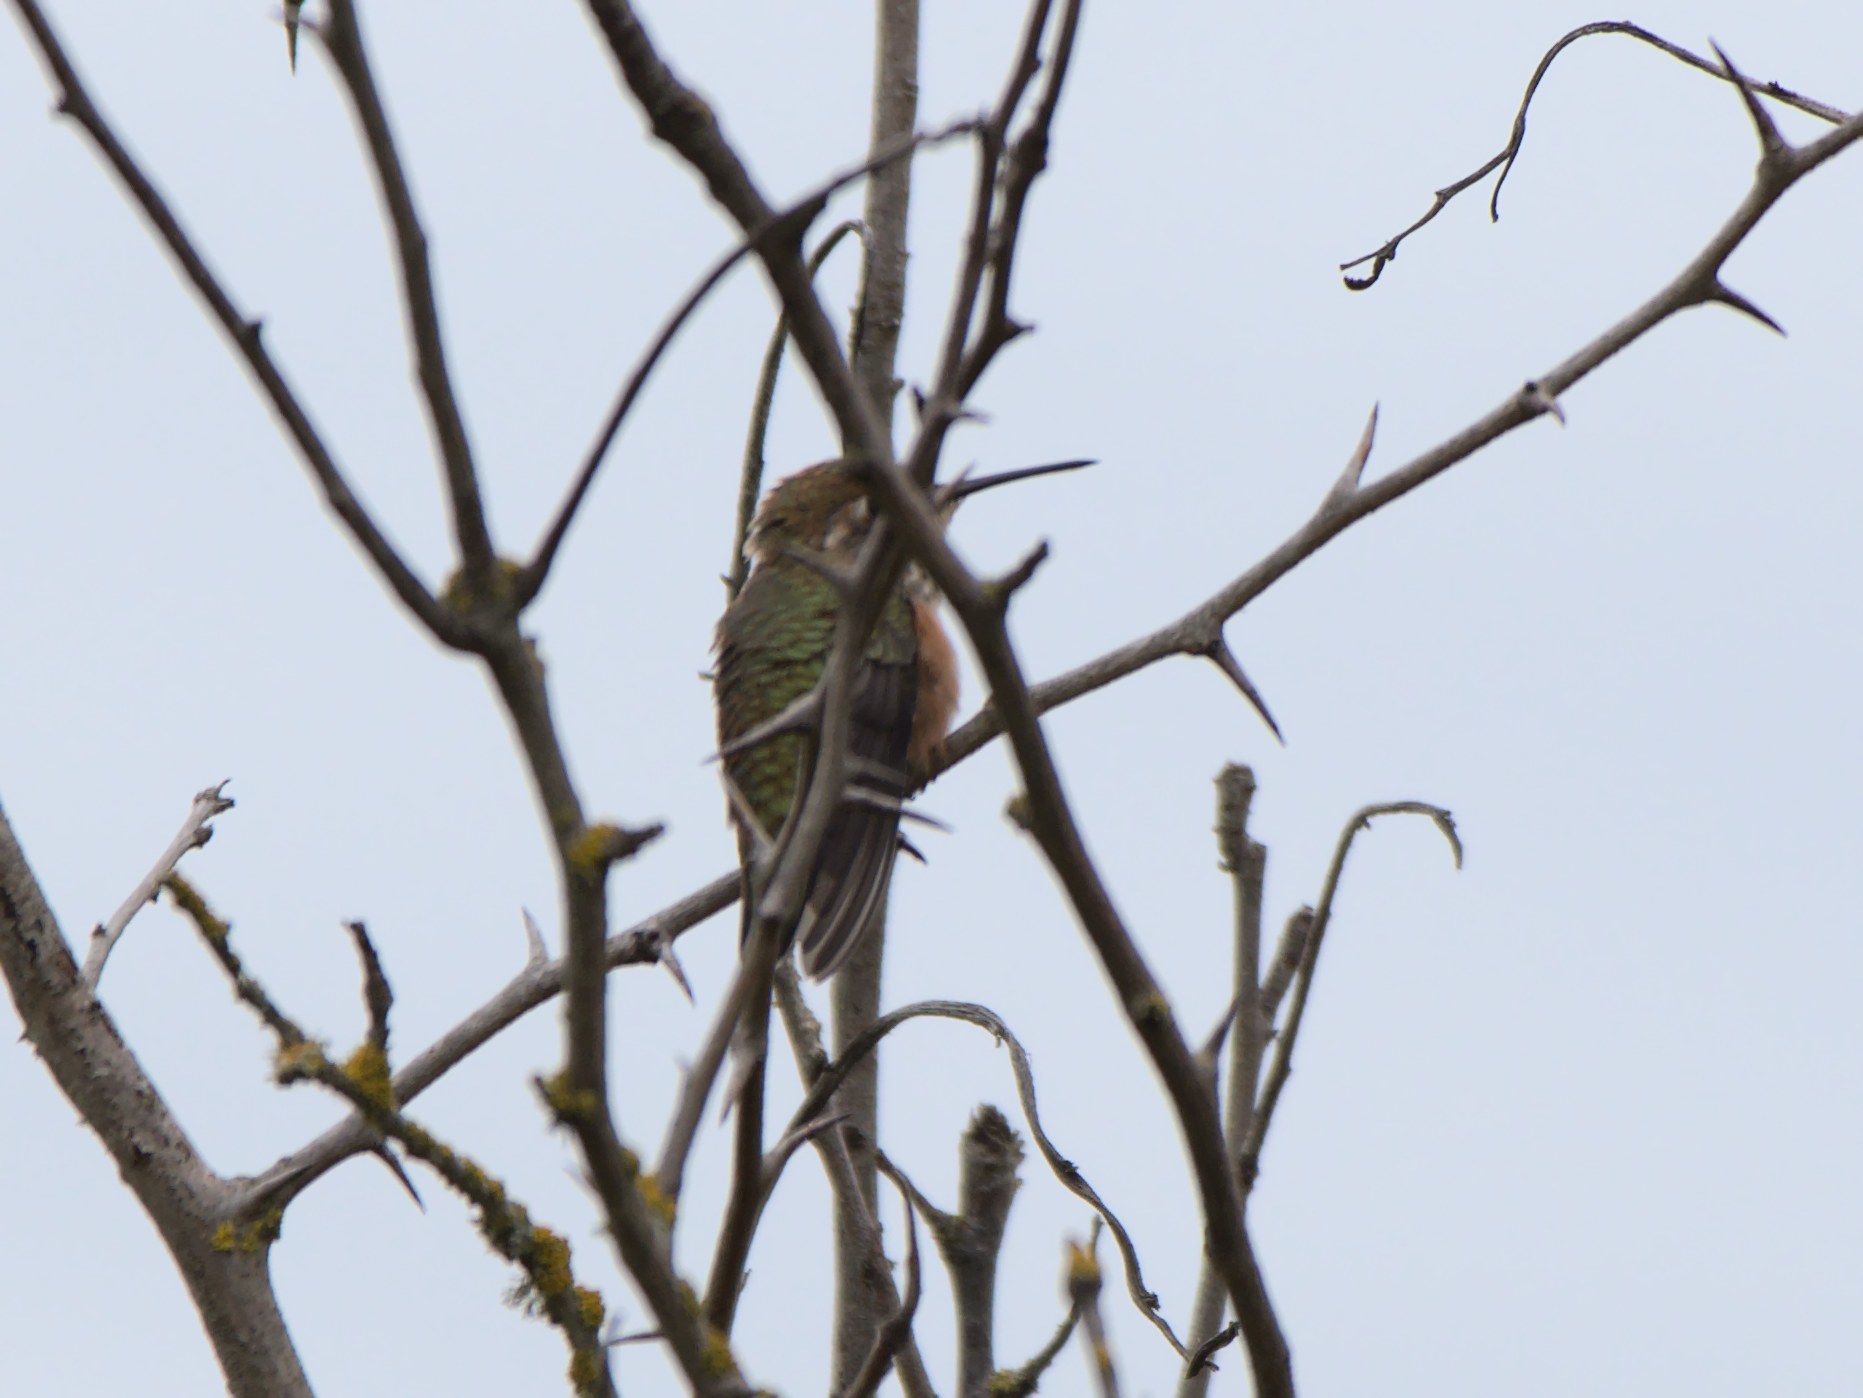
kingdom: Animalia
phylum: Chordata
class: Aves
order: Apodiformes
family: Trochilidae
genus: Selasphorus
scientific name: Selasphorus rufus
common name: Rufous hummingbird
